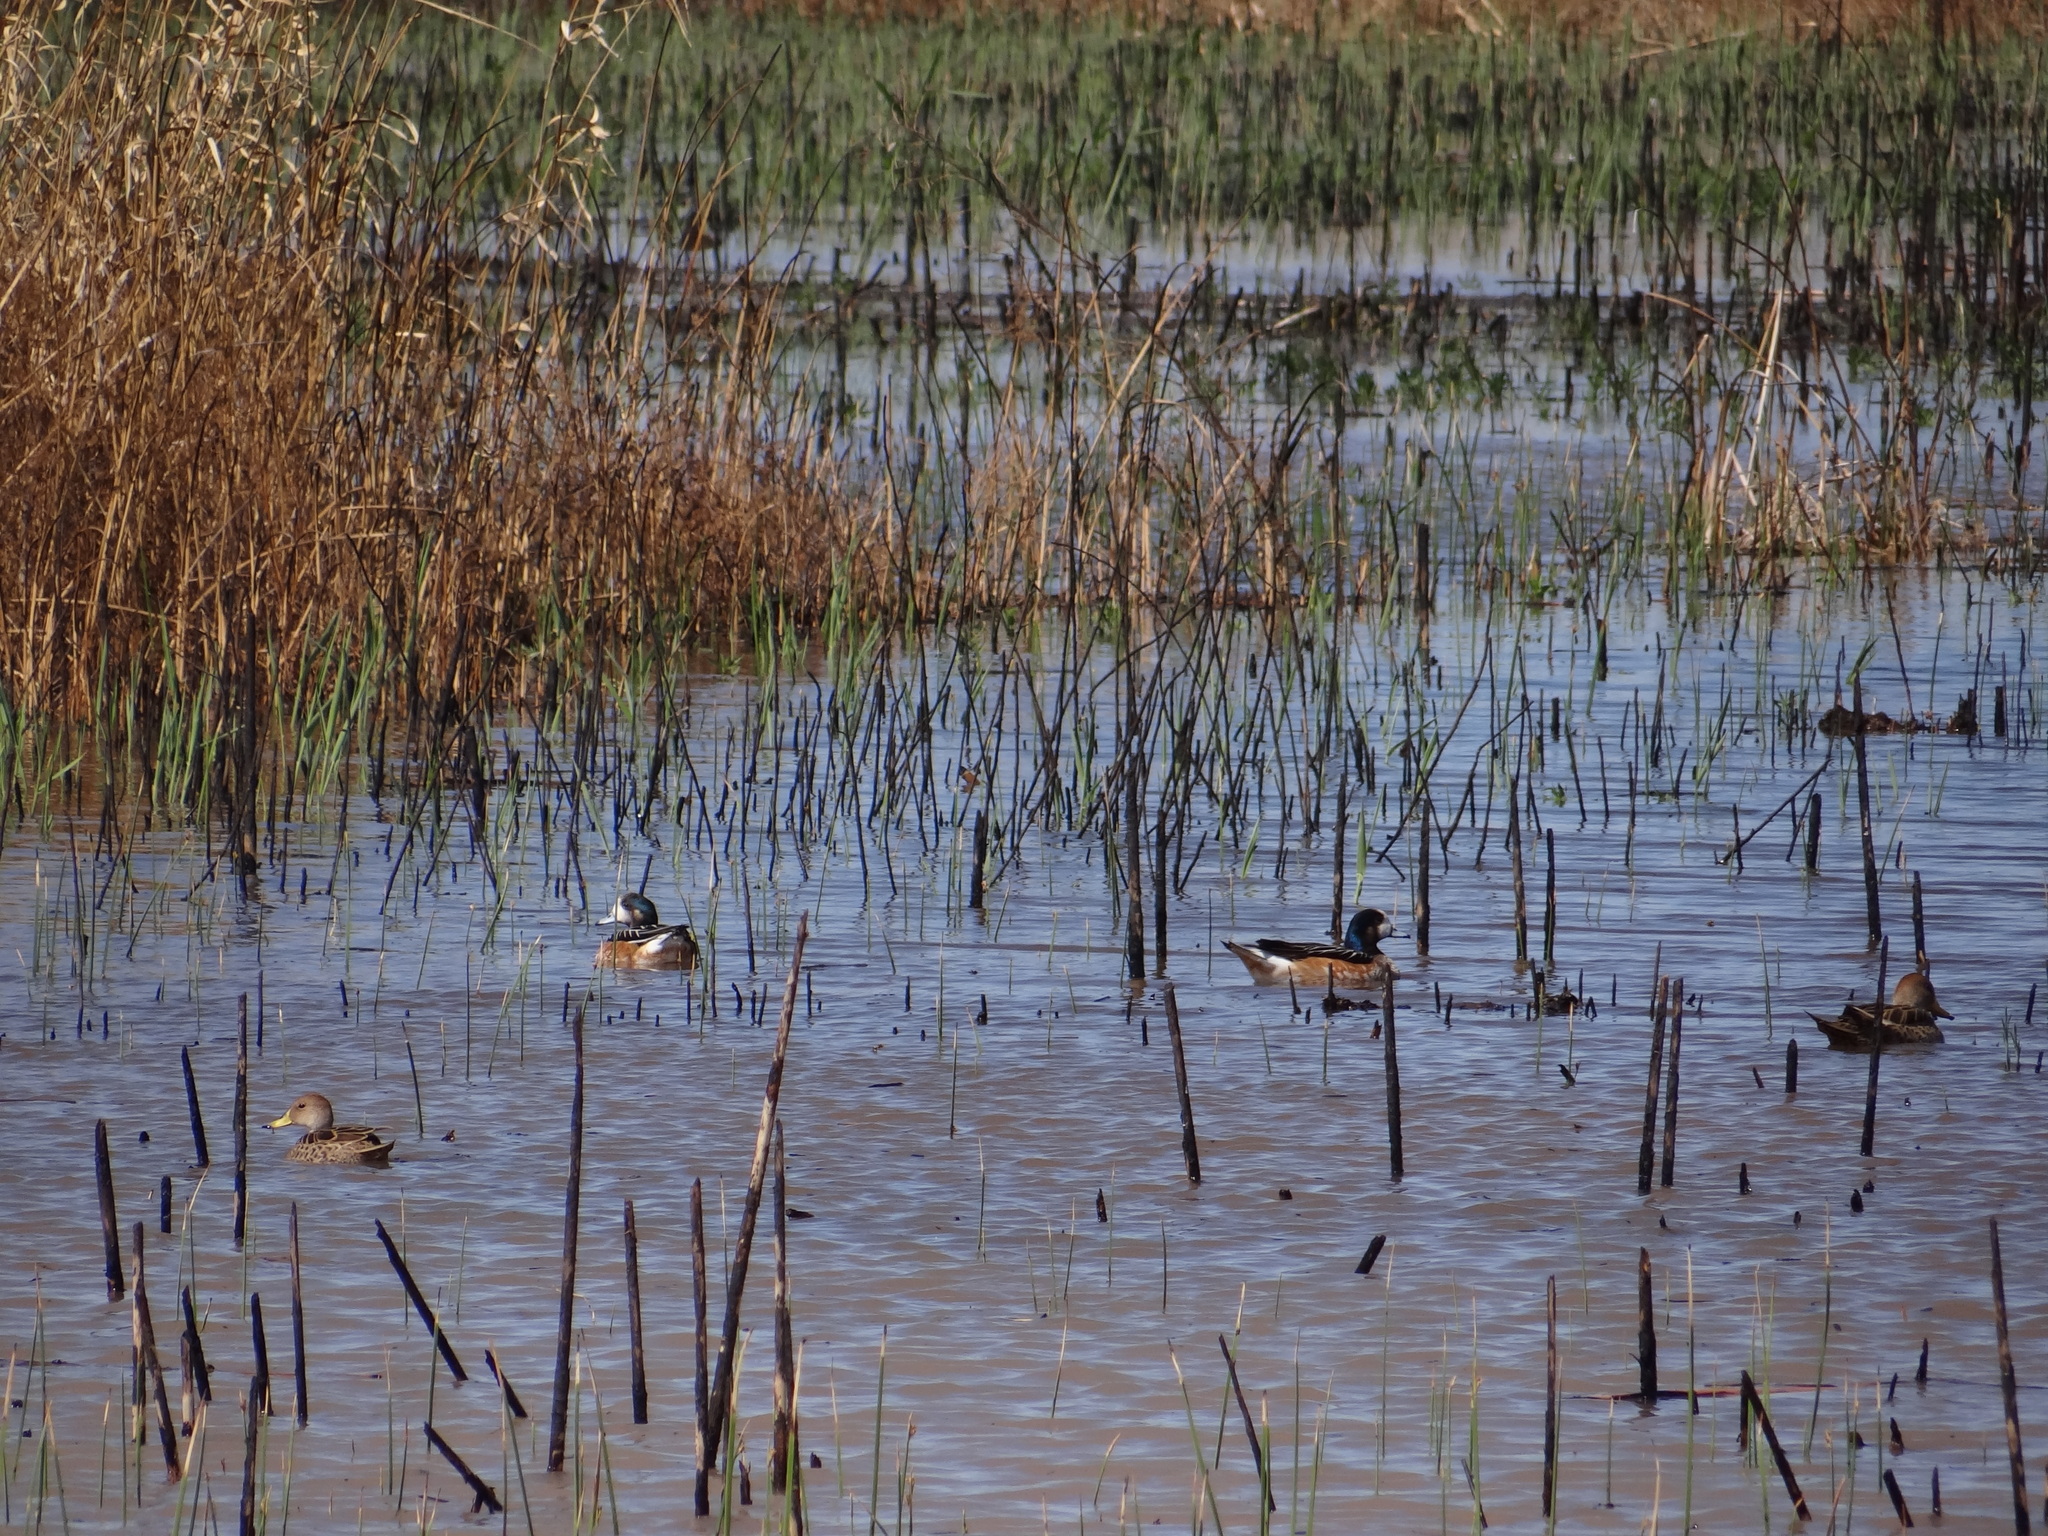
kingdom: Animalia
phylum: Chordata
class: Aves
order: Anseriformes
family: Anatidae
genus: Mareca
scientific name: Mareca sibilatrix
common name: Chiloe wigeon
